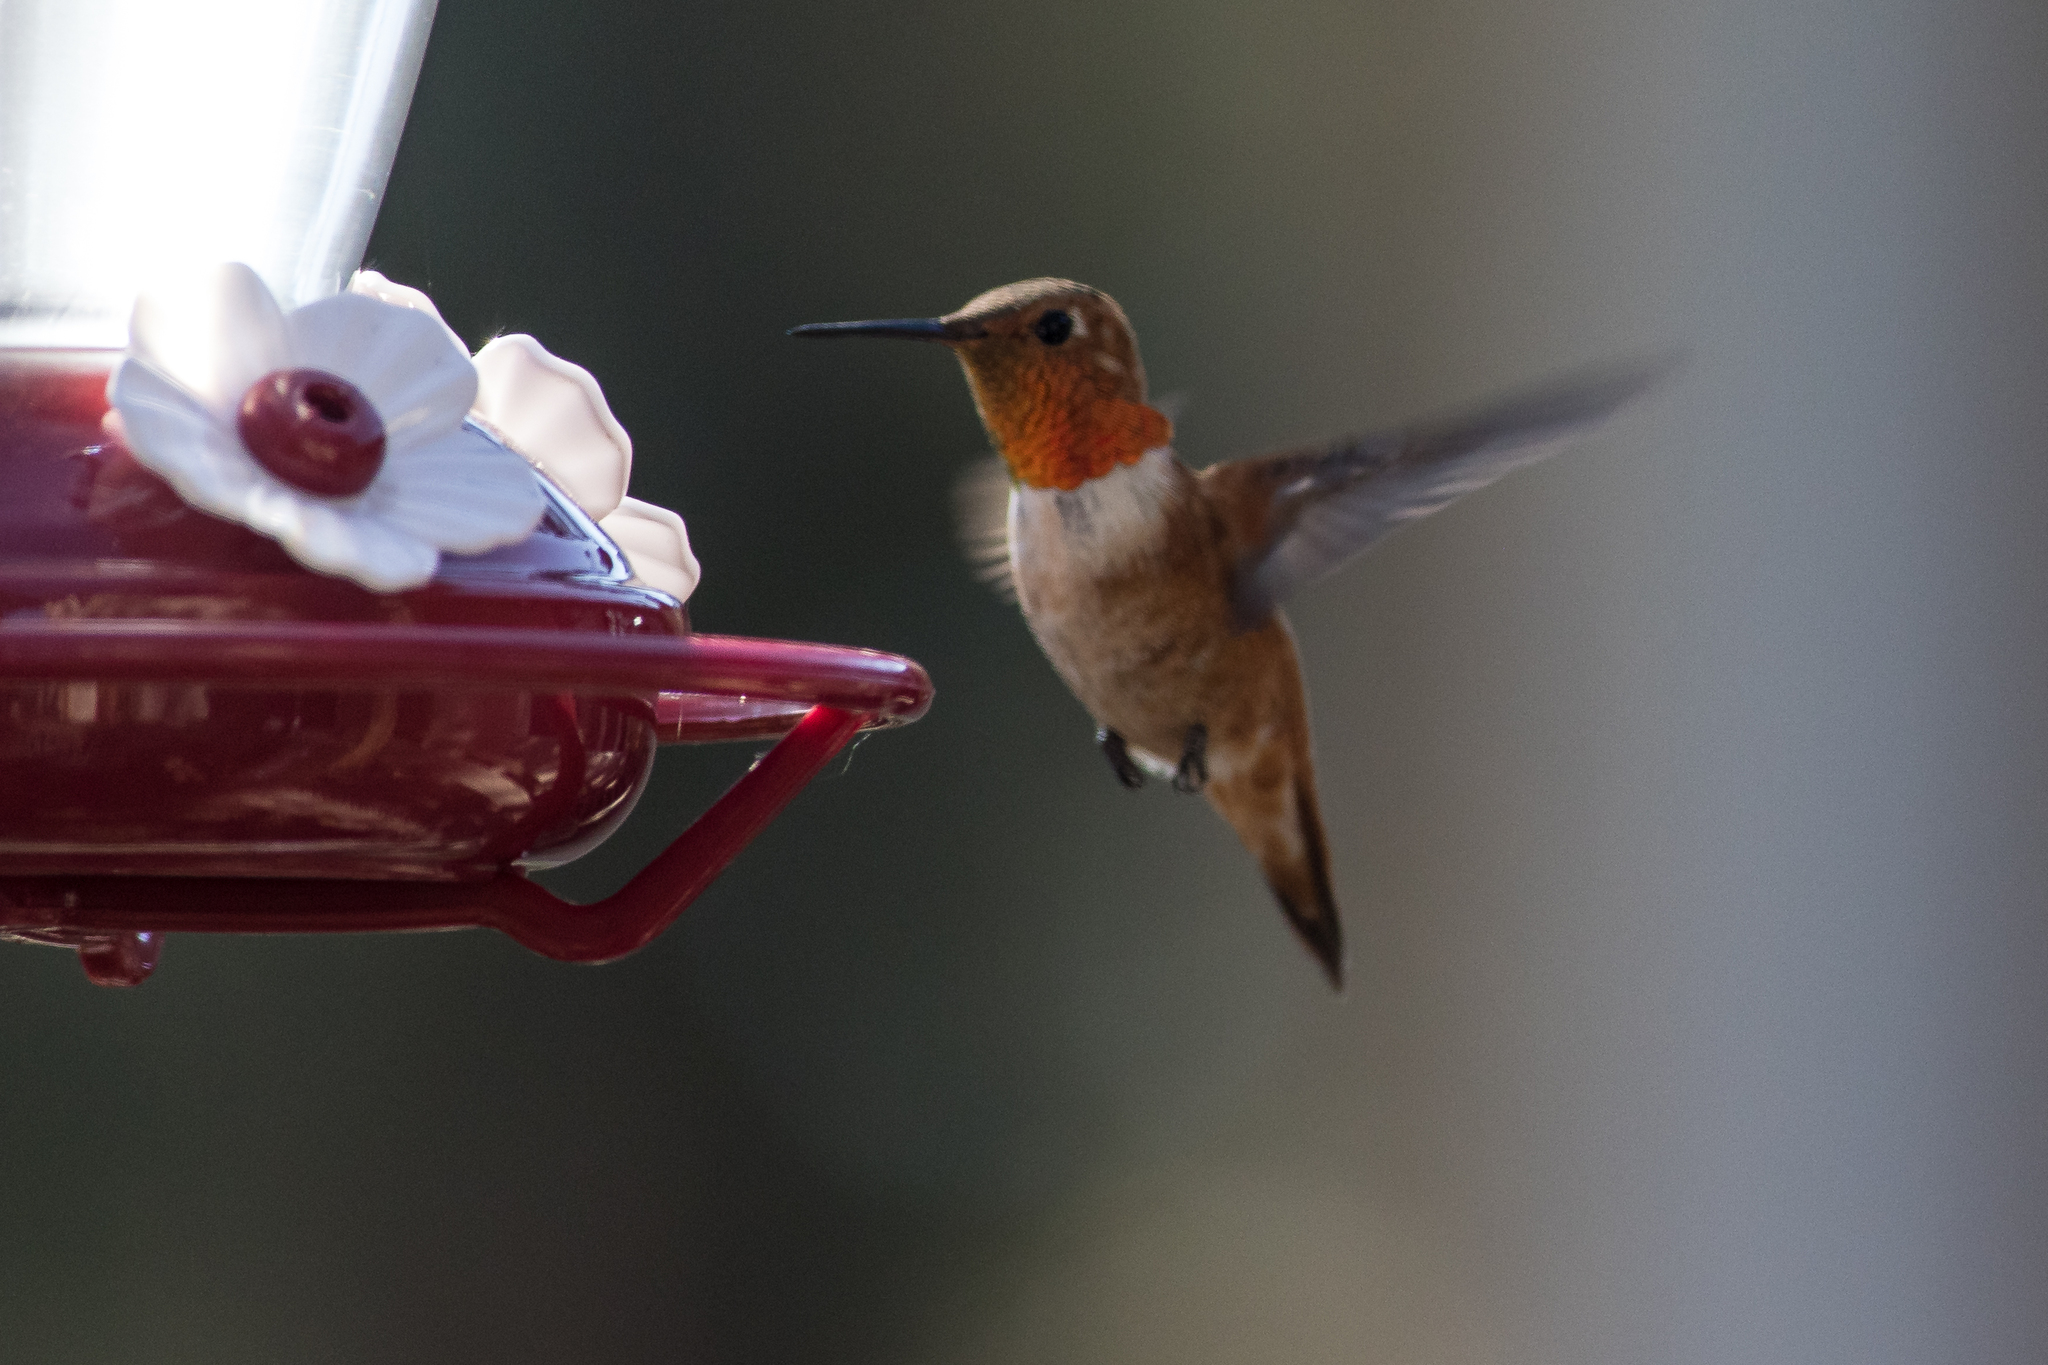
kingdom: Animalia
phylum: Chordata
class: Aves
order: Apodiformes
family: Trochilidae
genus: Selasphorus
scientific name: Selasphorus rufus
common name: Rufous hummingbird
